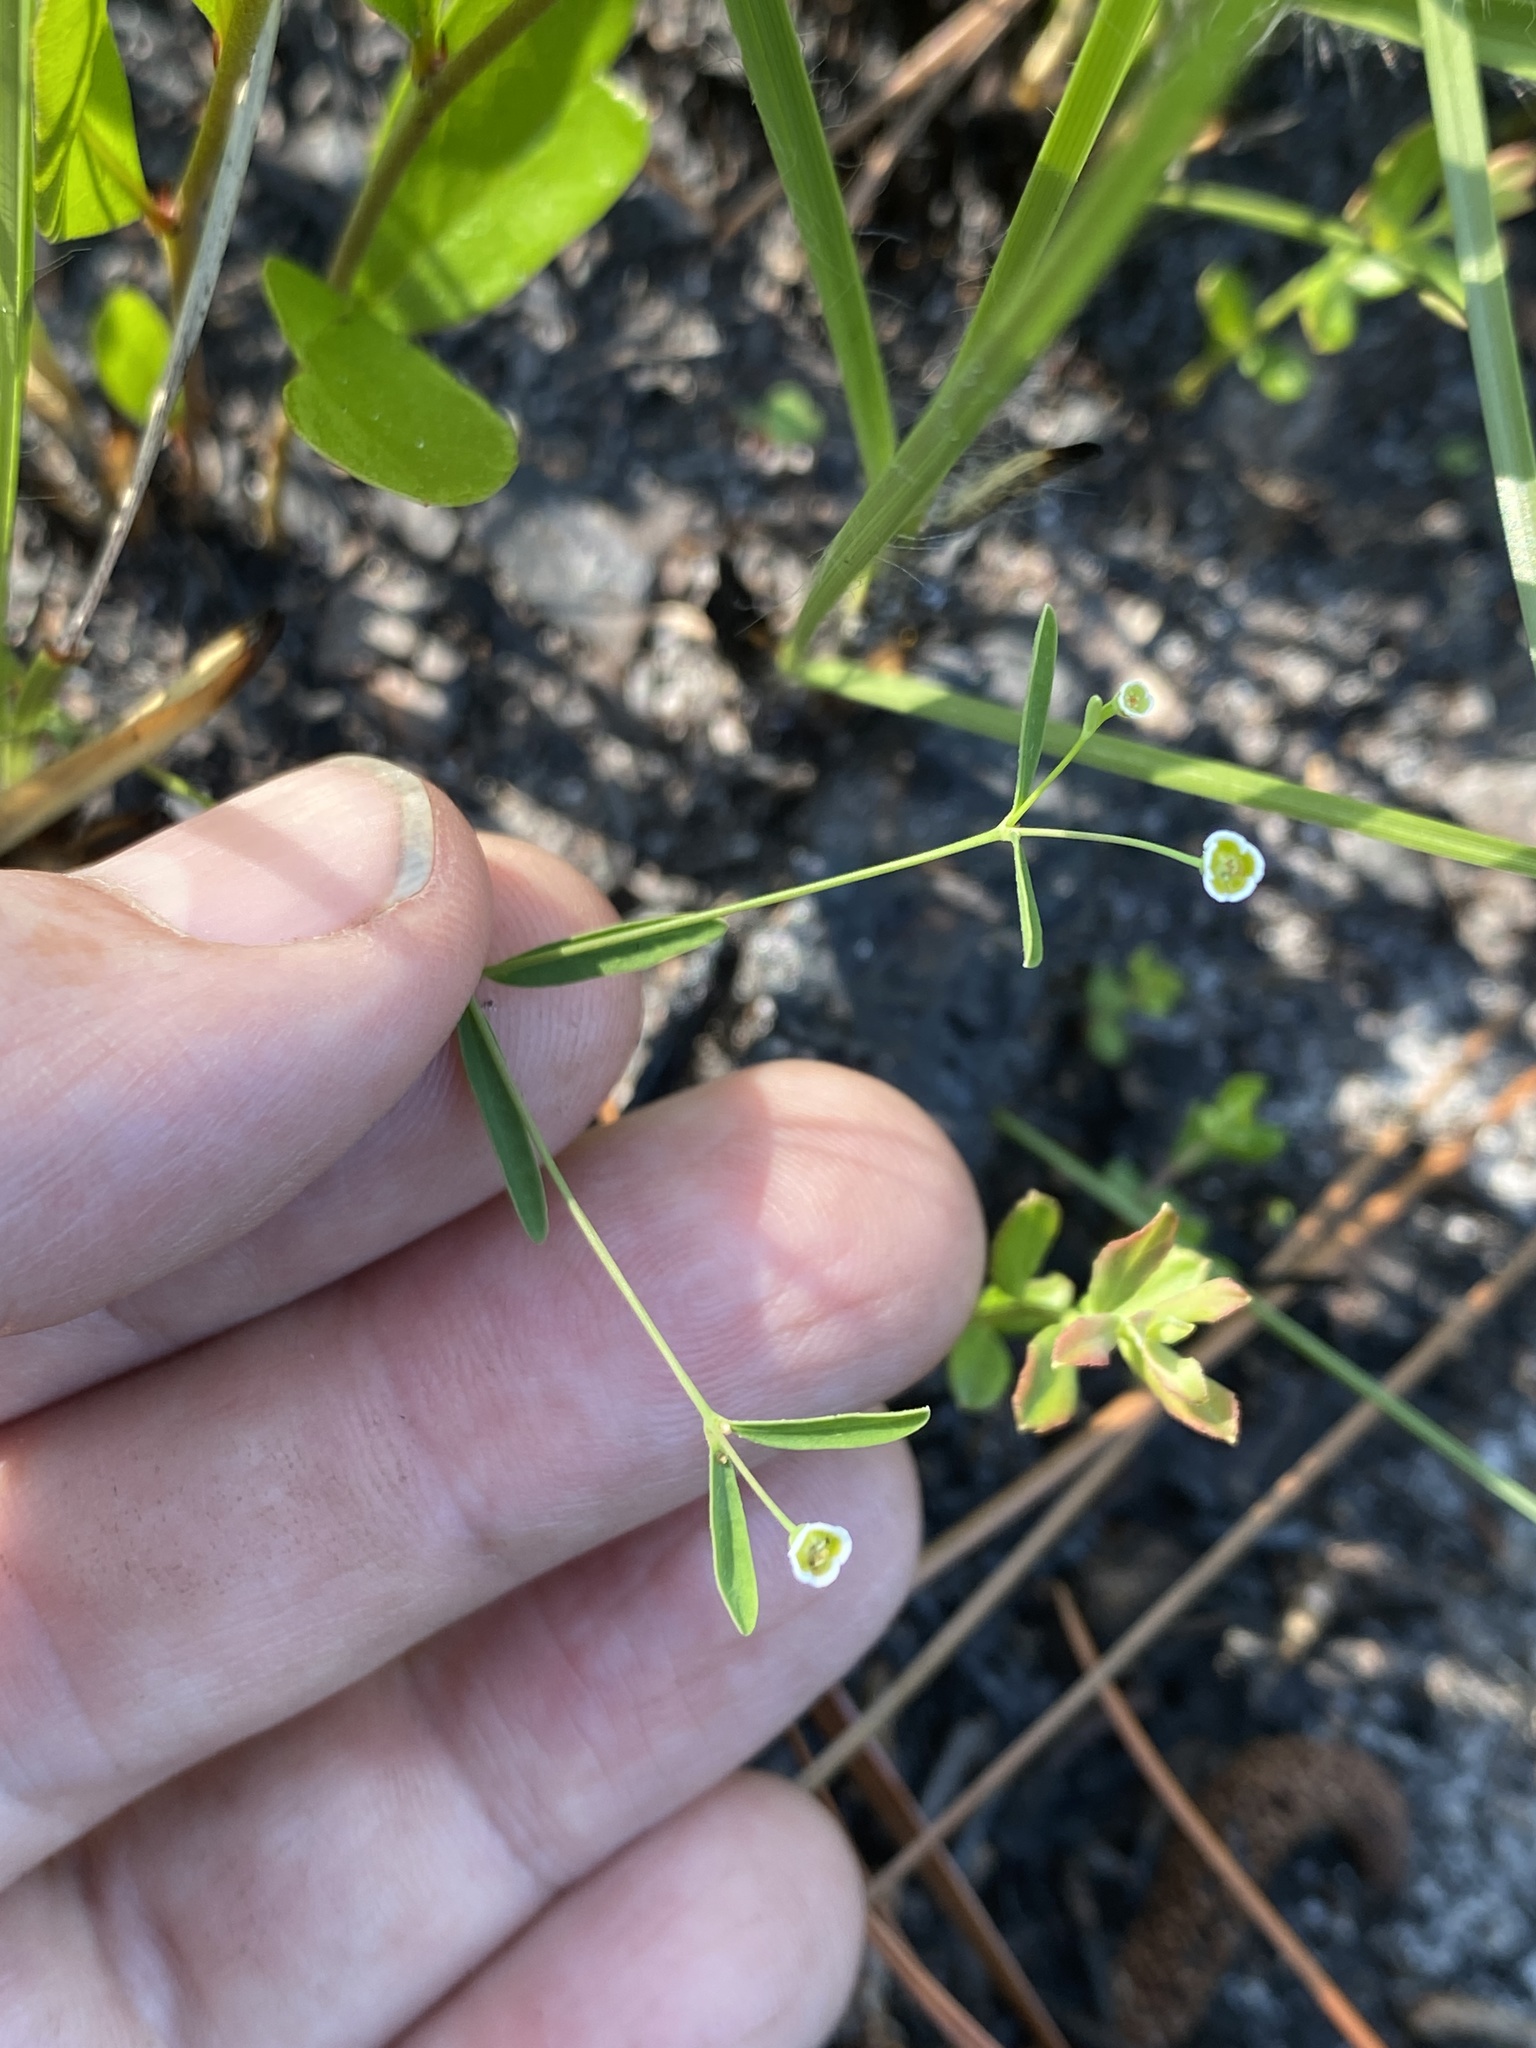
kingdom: Plantae
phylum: Tracheophyta
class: Magnoliopsida
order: Malpighiales
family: Euphorbiaceae
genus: Euphorbia
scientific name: Euphorbia curtisii
